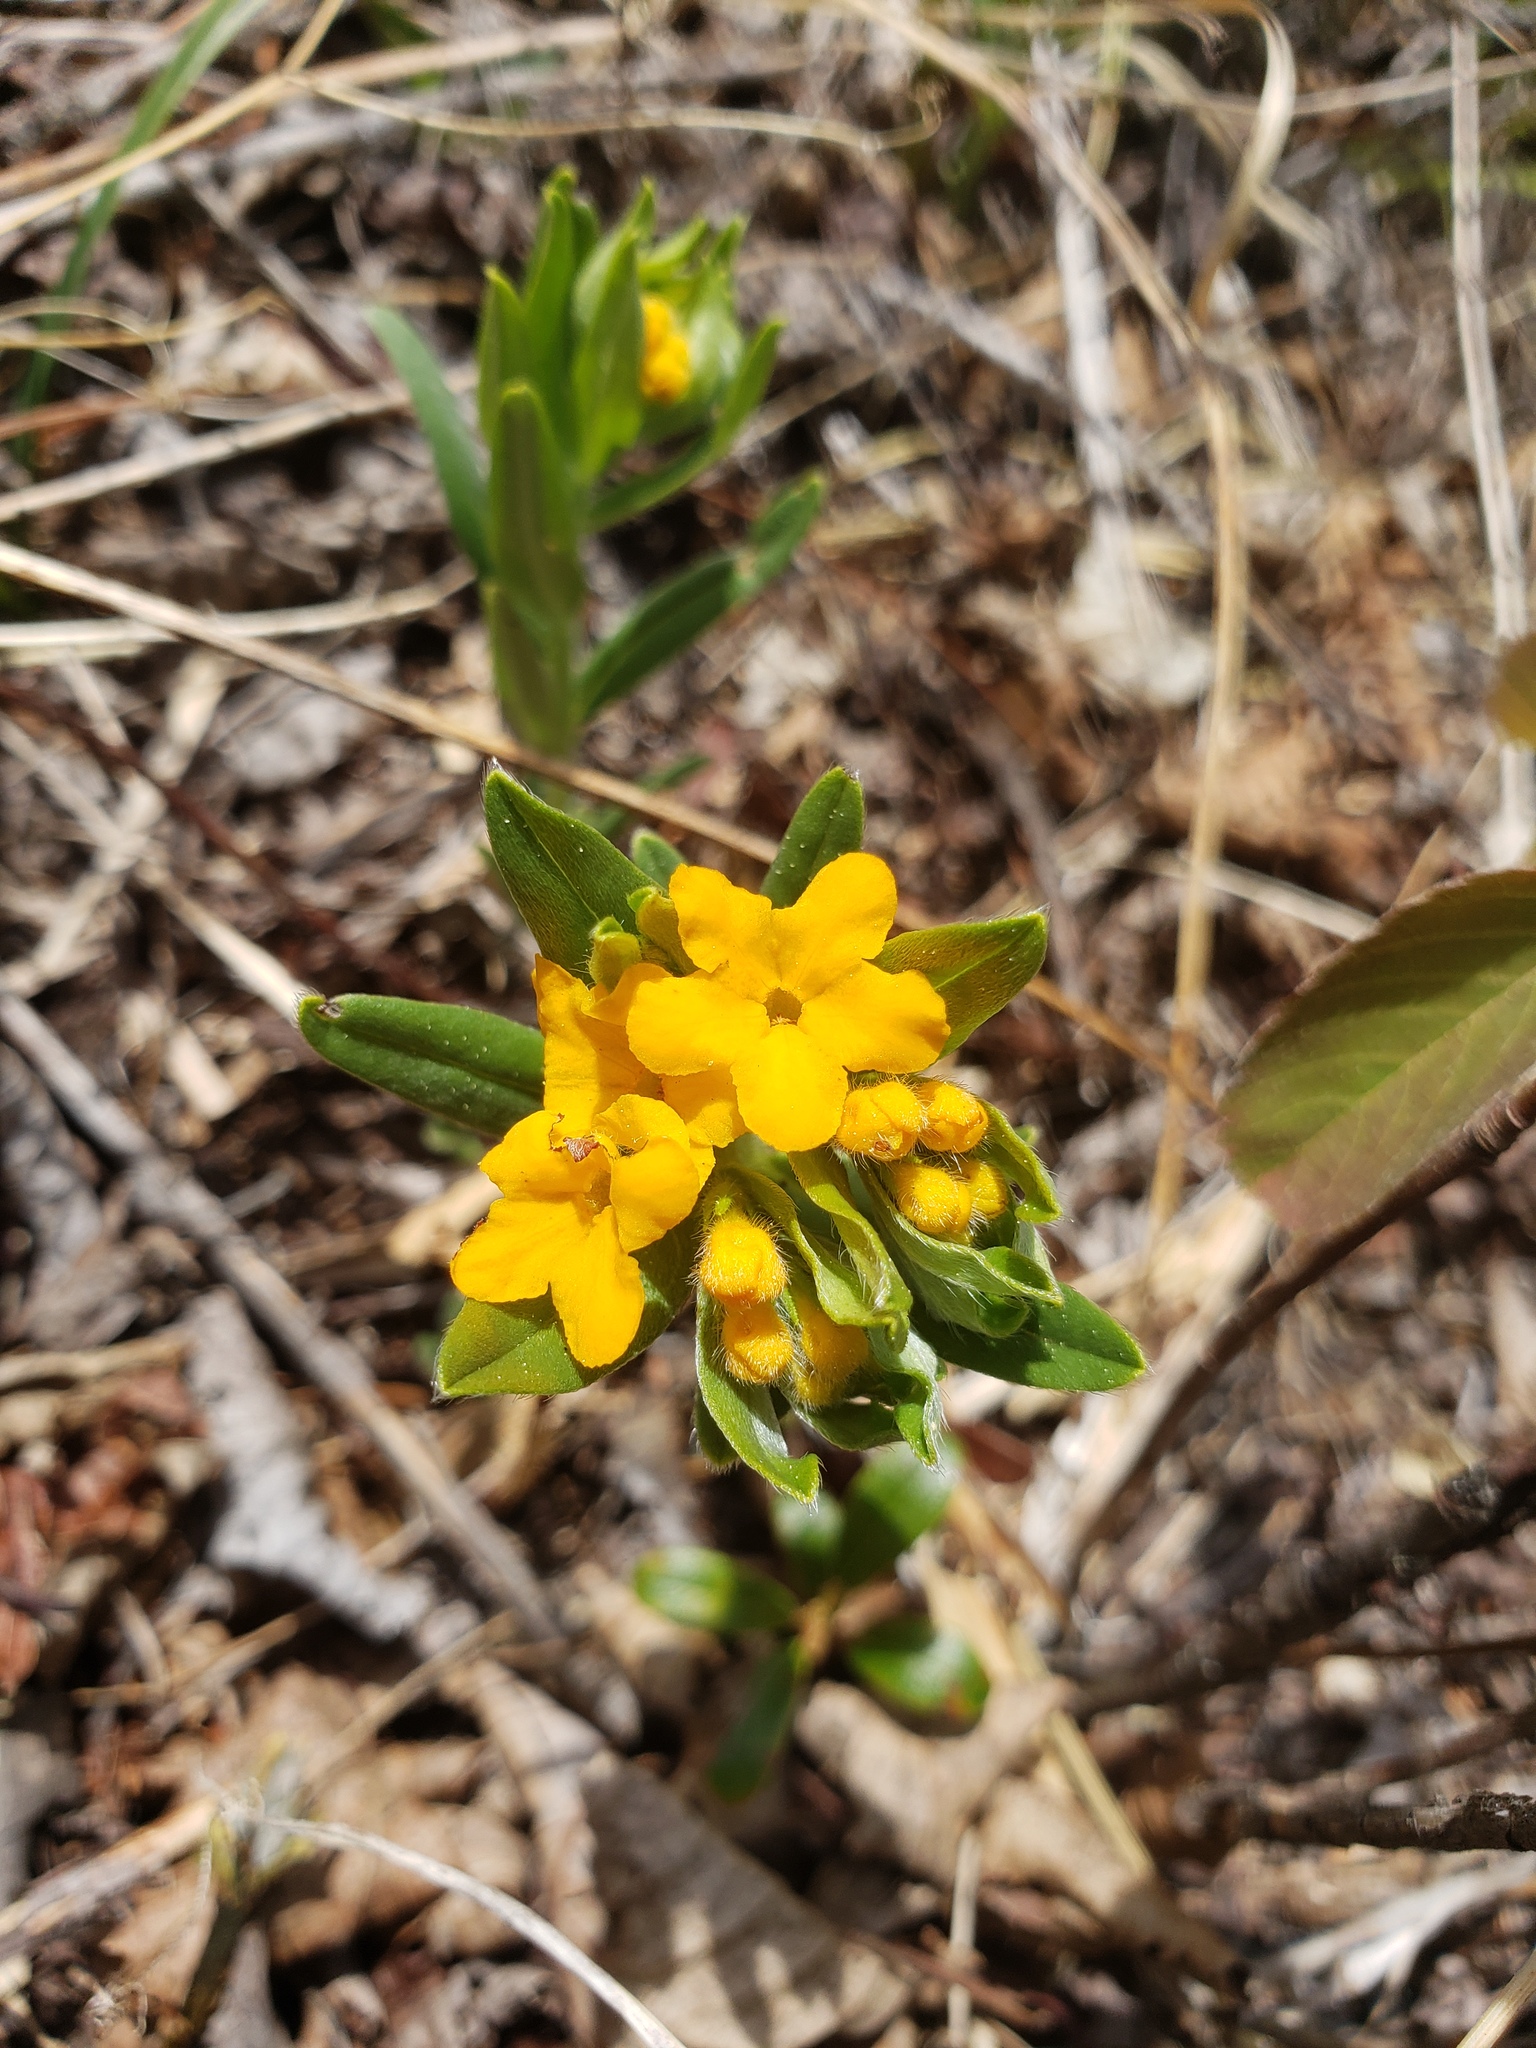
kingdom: Plantae
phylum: Tracheophyta
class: Magnoliopsida
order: Boraginales
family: Boraginaceae
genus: Lithospermum
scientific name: Lithospermum canescens
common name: Hoary puccoon
